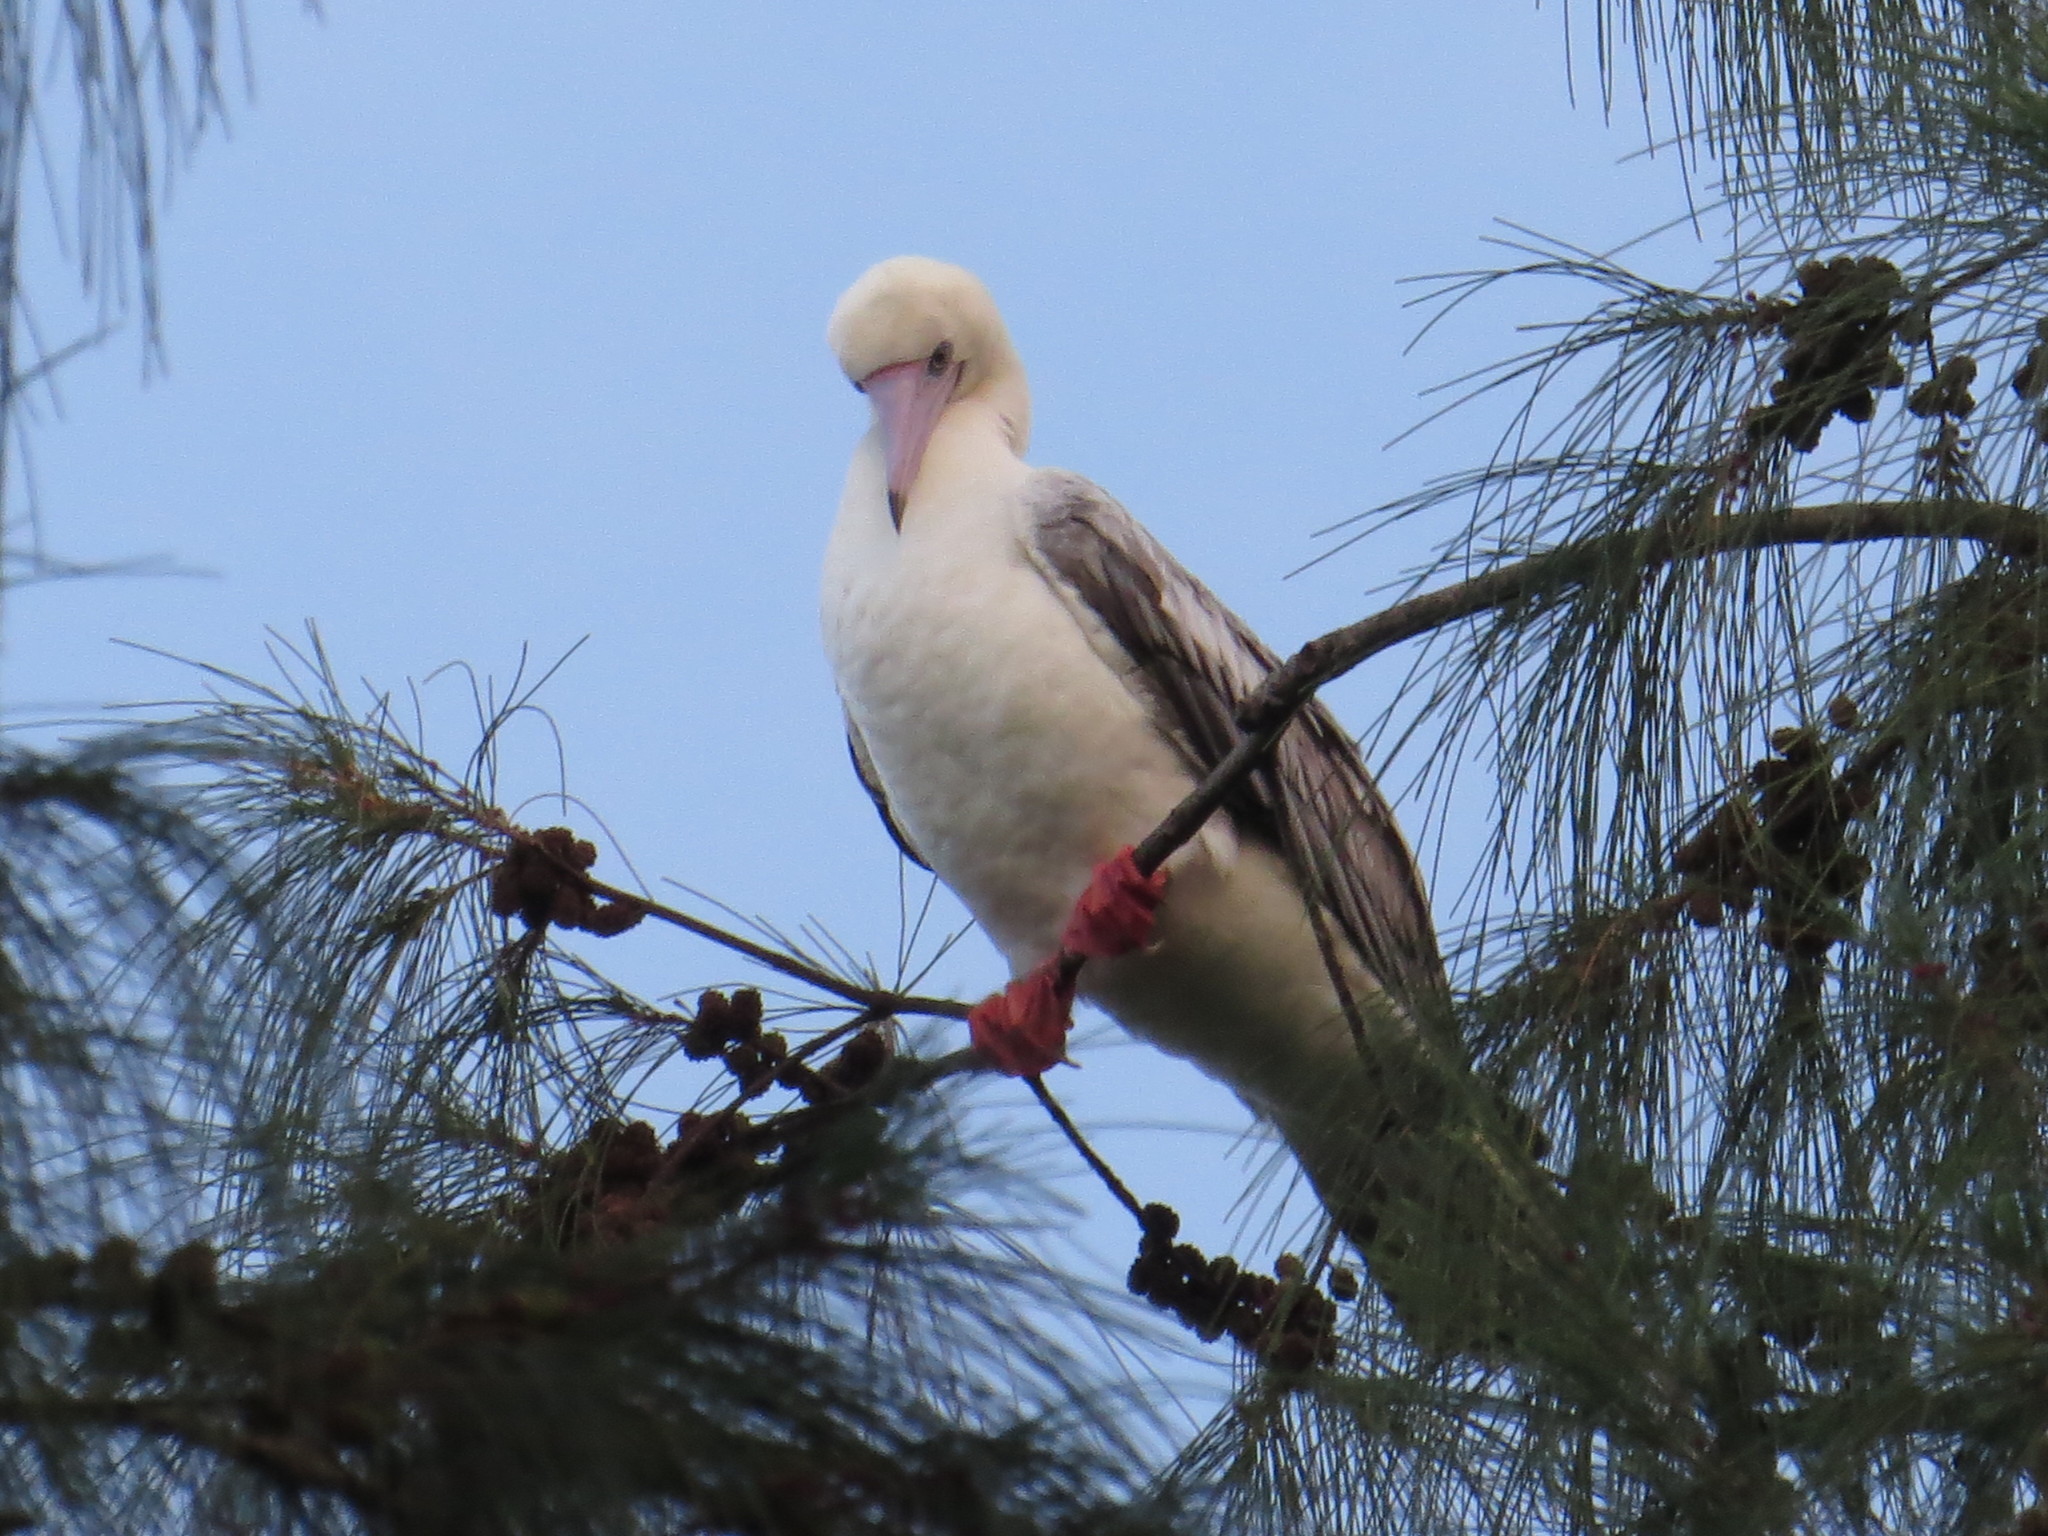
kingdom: Animalia
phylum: Chordata
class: Aves
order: Suliformes
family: Sulidae
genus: Sula
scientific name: Sula sula
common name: Red-footed booby
